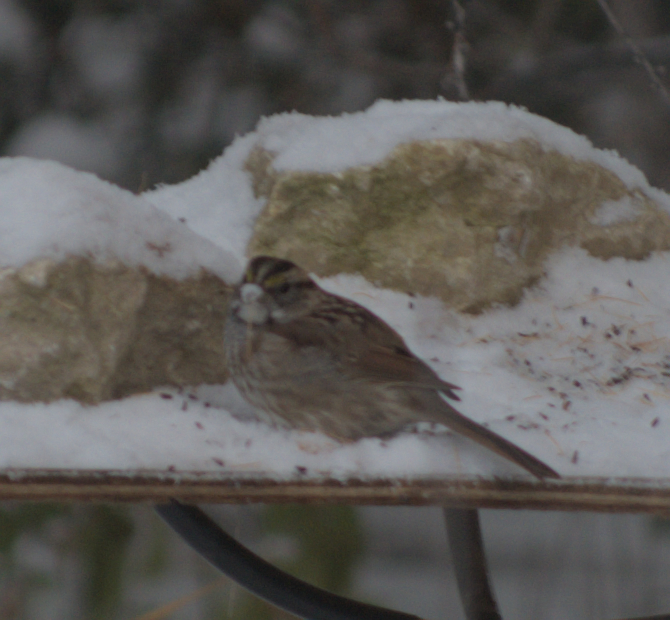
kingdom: Animalia
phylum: Chordata
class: Aves
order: Passeriformes
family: Passerellidae
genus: Zonotrichia
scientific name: Zonotrichia albicollis
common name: White-throated sparrow
